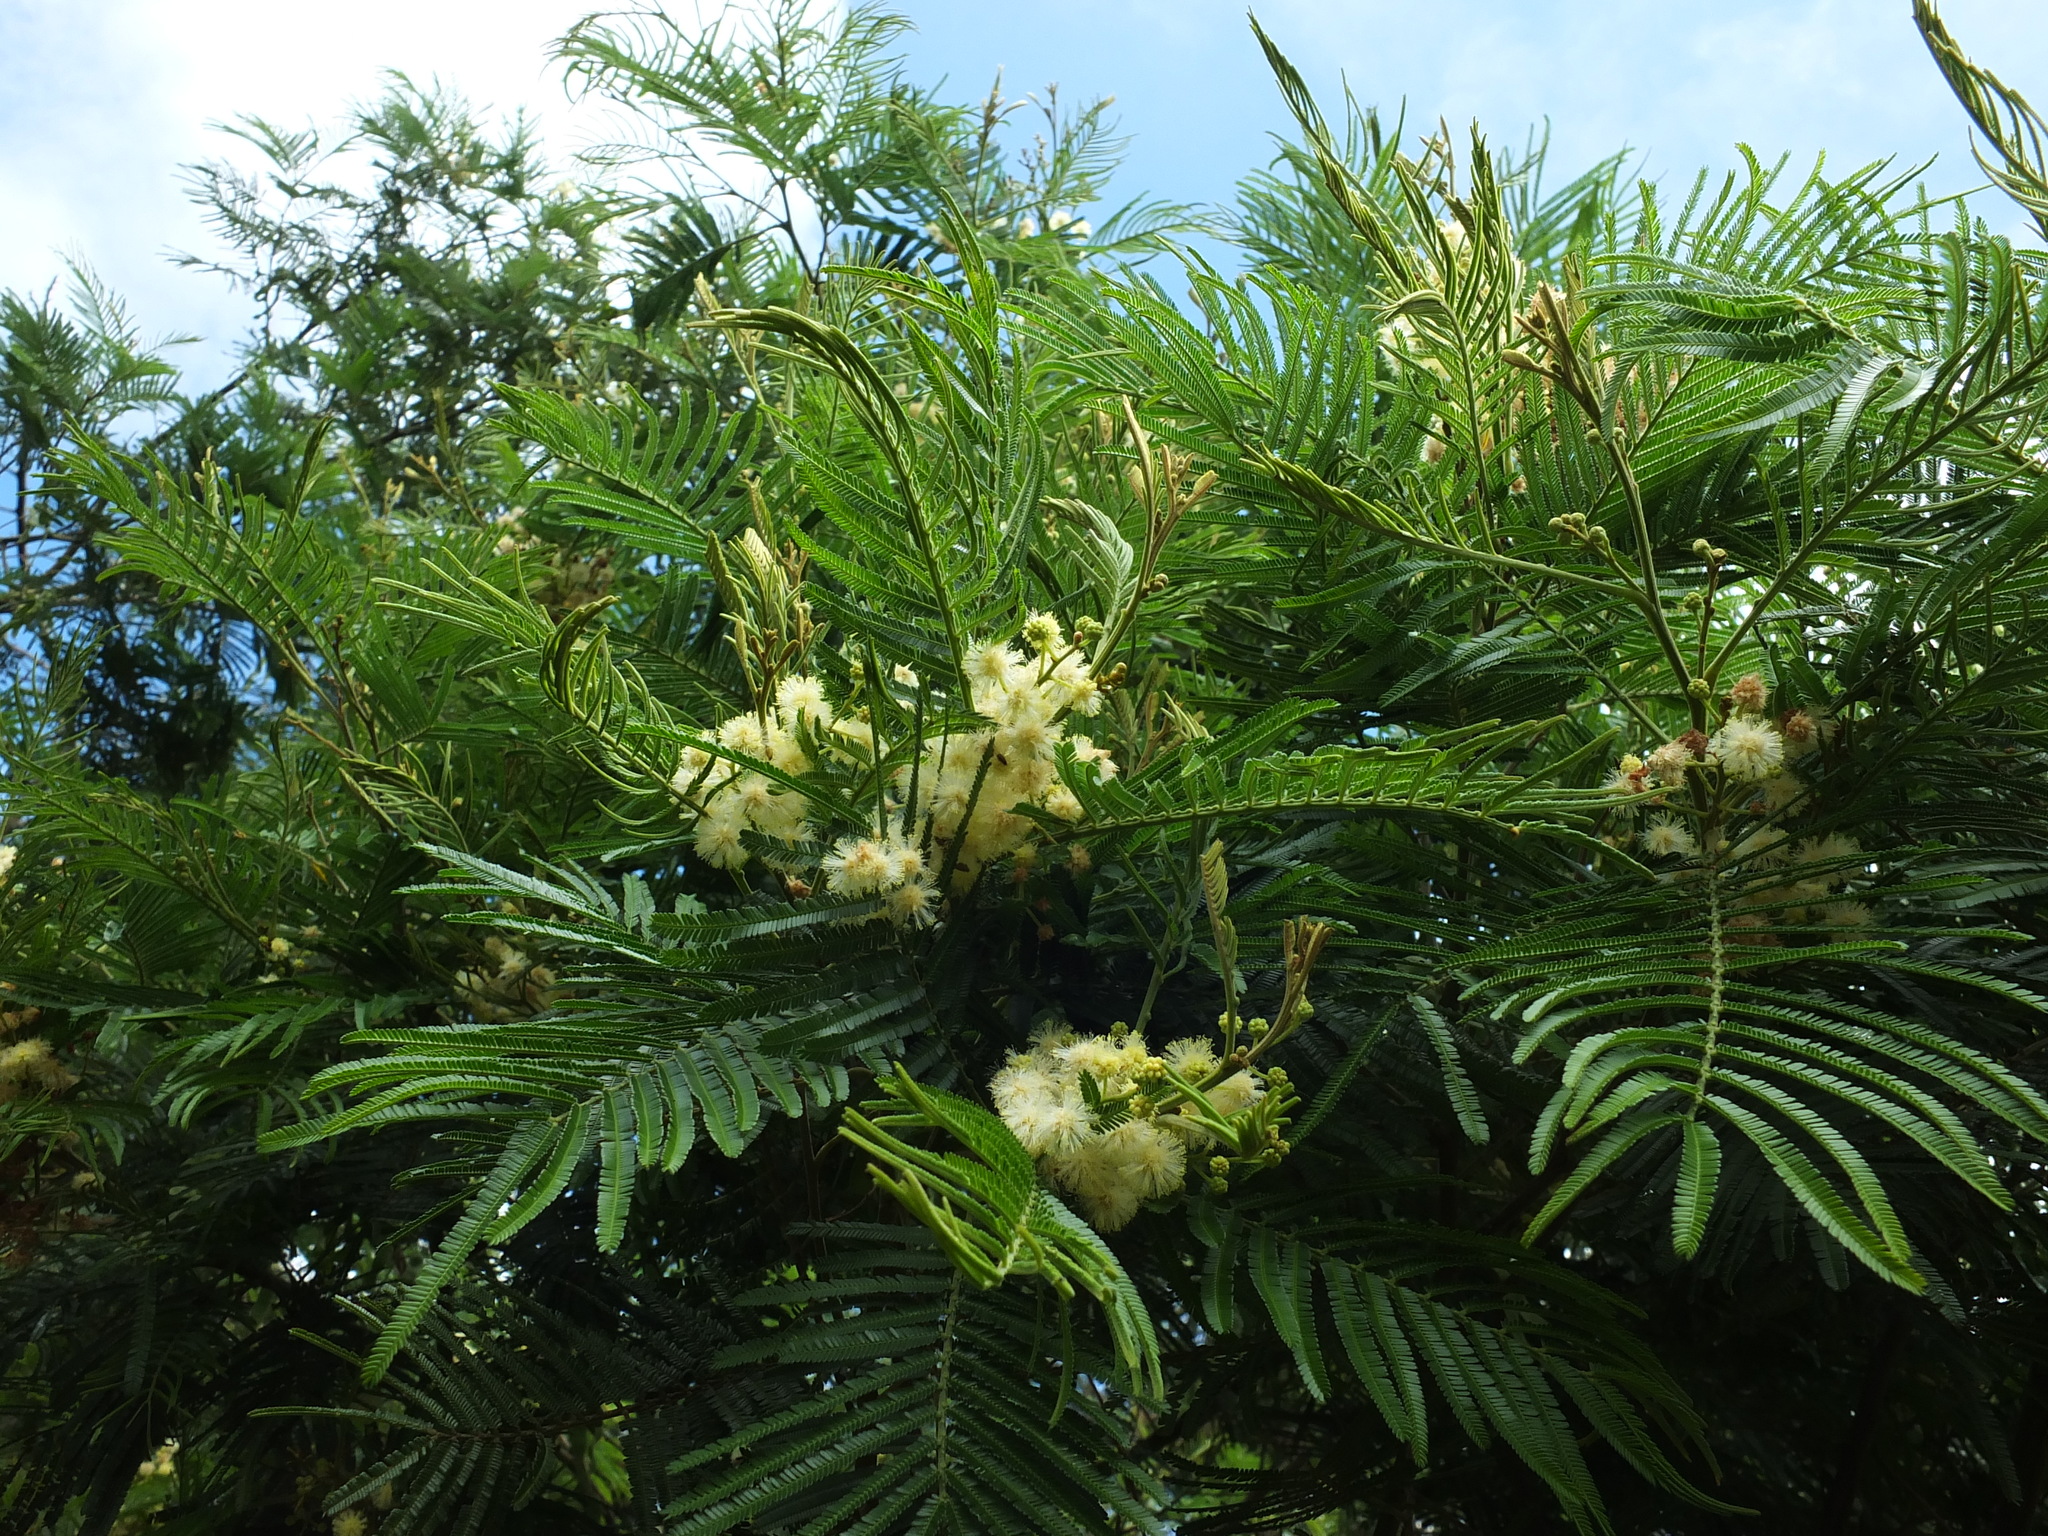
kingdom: Plantae
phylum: Tracheophyta
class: Magnoliopsida
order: Fabales
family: Fabaceae
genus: Acacia
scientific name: Acacia mearnsii
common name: Black wattle
